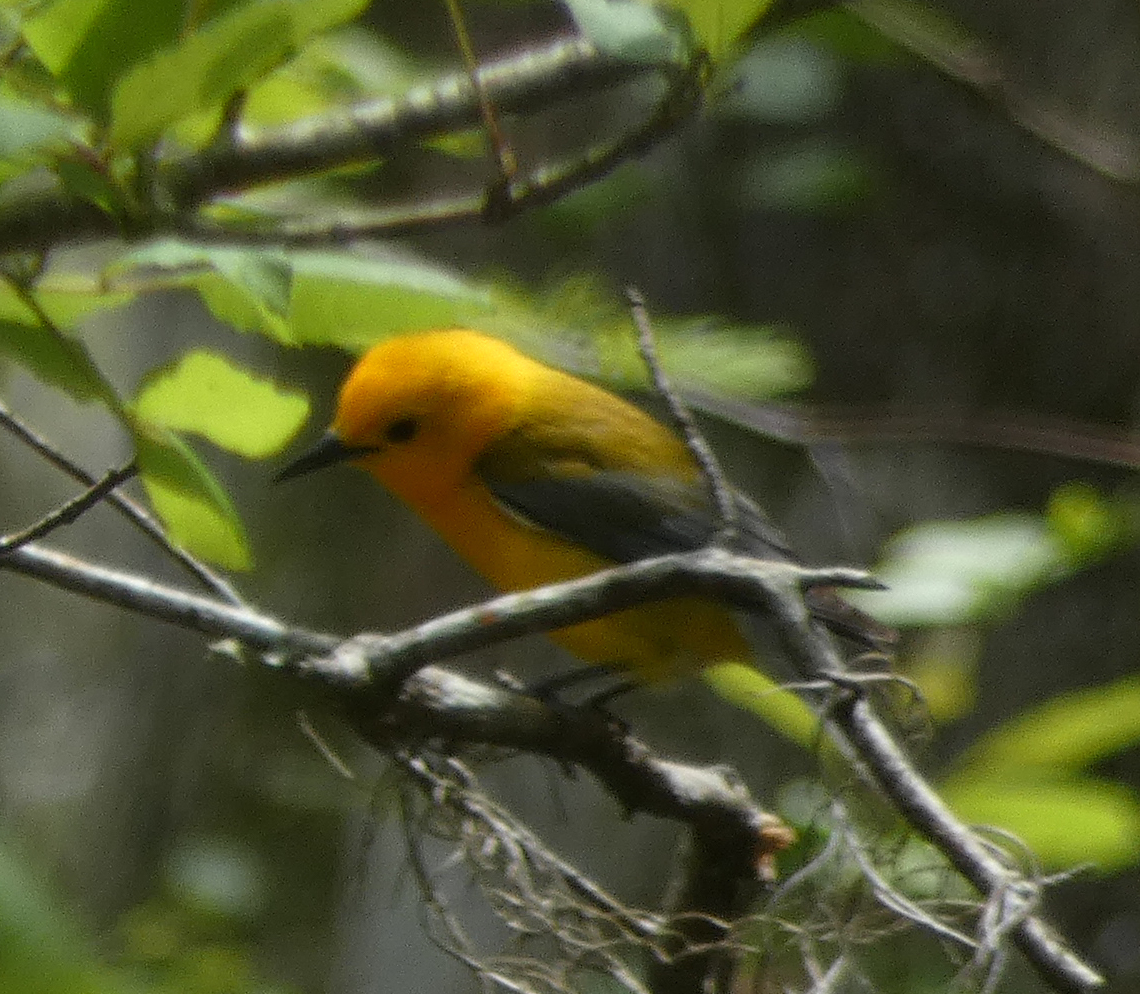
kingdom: Animalia
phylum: Chordata
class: Aves
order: Passeriformes
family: Parulidae
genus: Protonotaria
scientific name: Protonotaria citrea
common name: Prothonotary warbler
